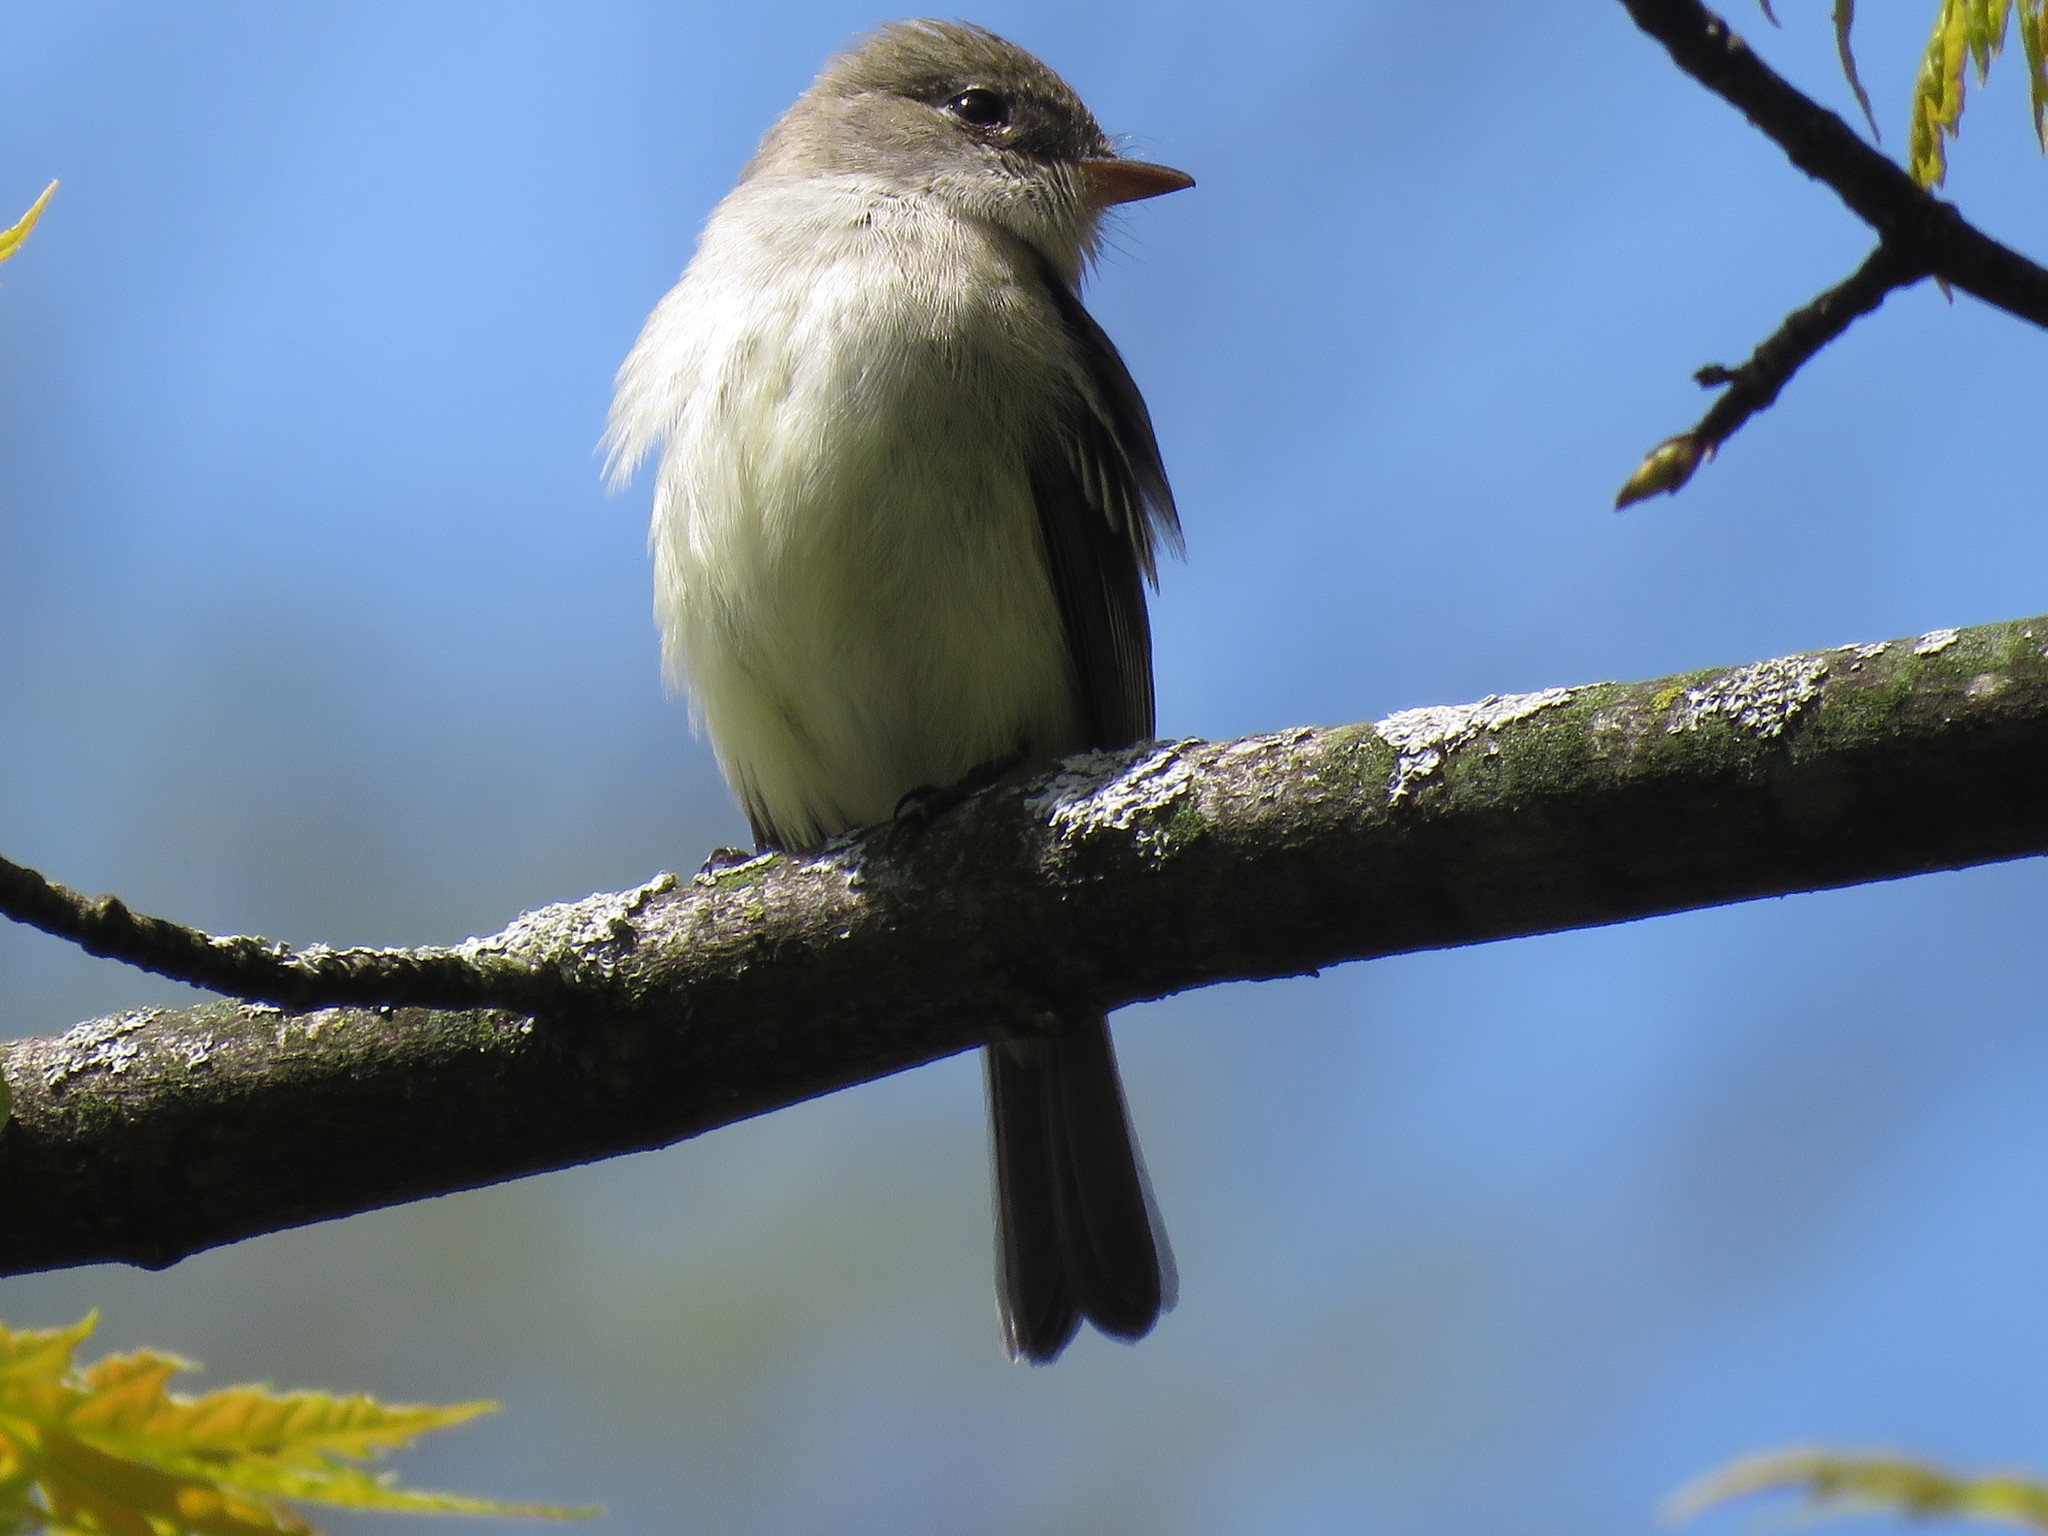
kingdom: Animalia
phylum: Chordata
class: Aves
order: Passeriformes
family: Tyrannidae
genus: Empidonax
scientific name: Empidonax minimus
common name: Least flycatcher
